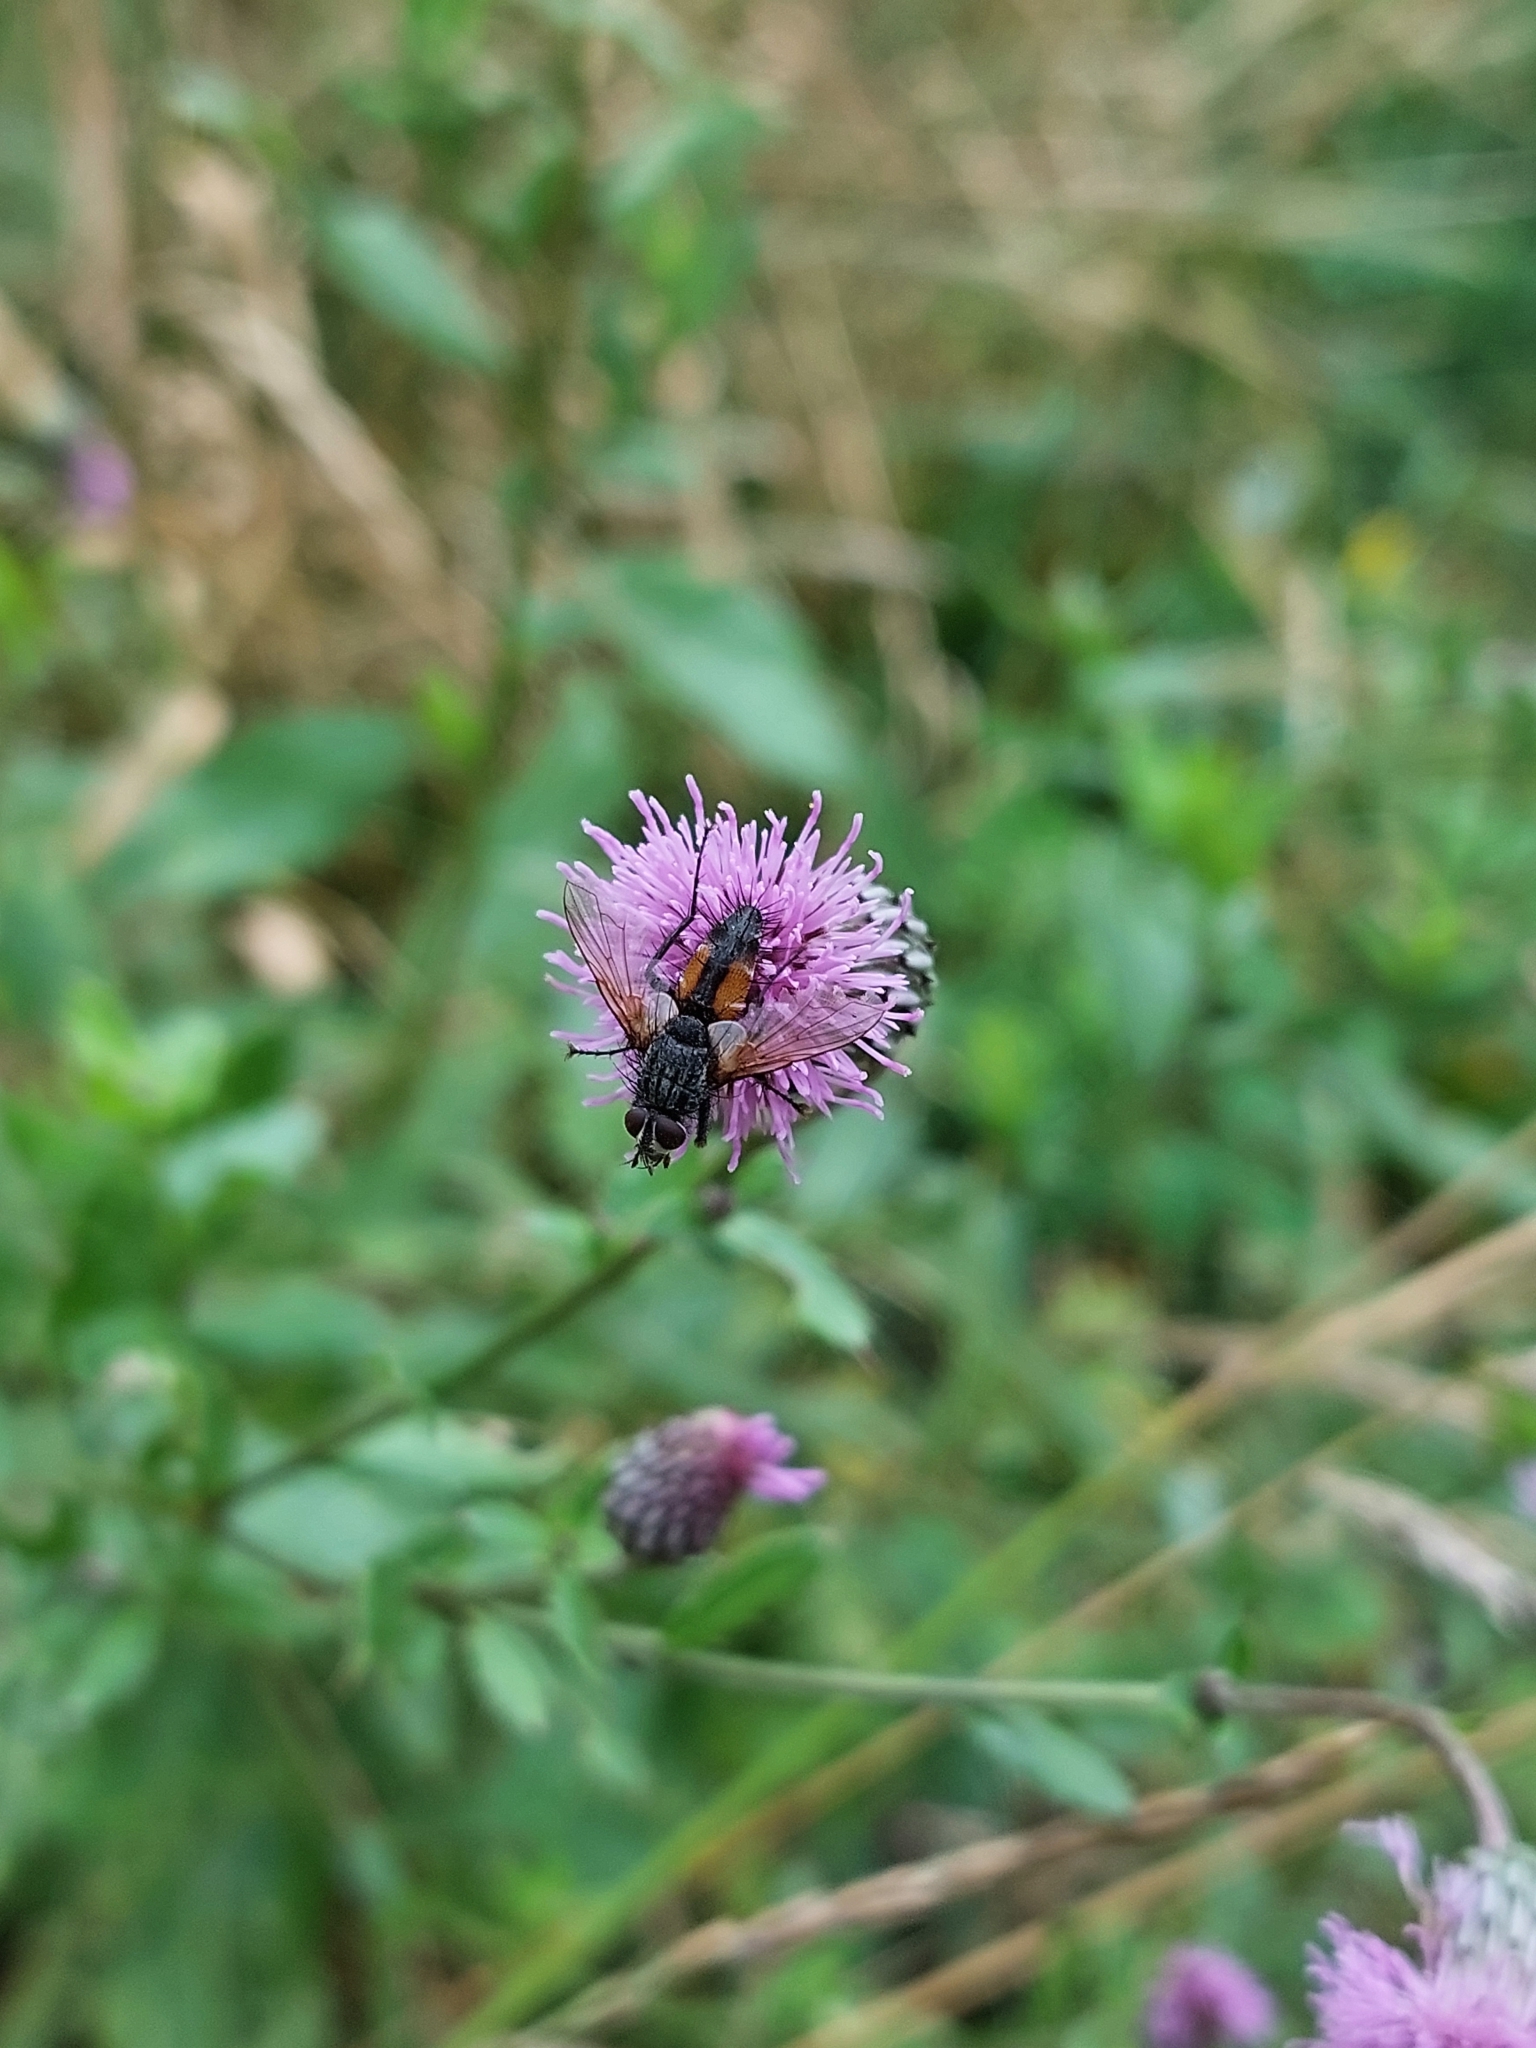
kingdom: Animalia
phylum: Arthropoda
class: Insecta
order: Diptera
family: Tachinidae
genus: Eriothrix
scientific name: Eriothrix rufomaculatus
